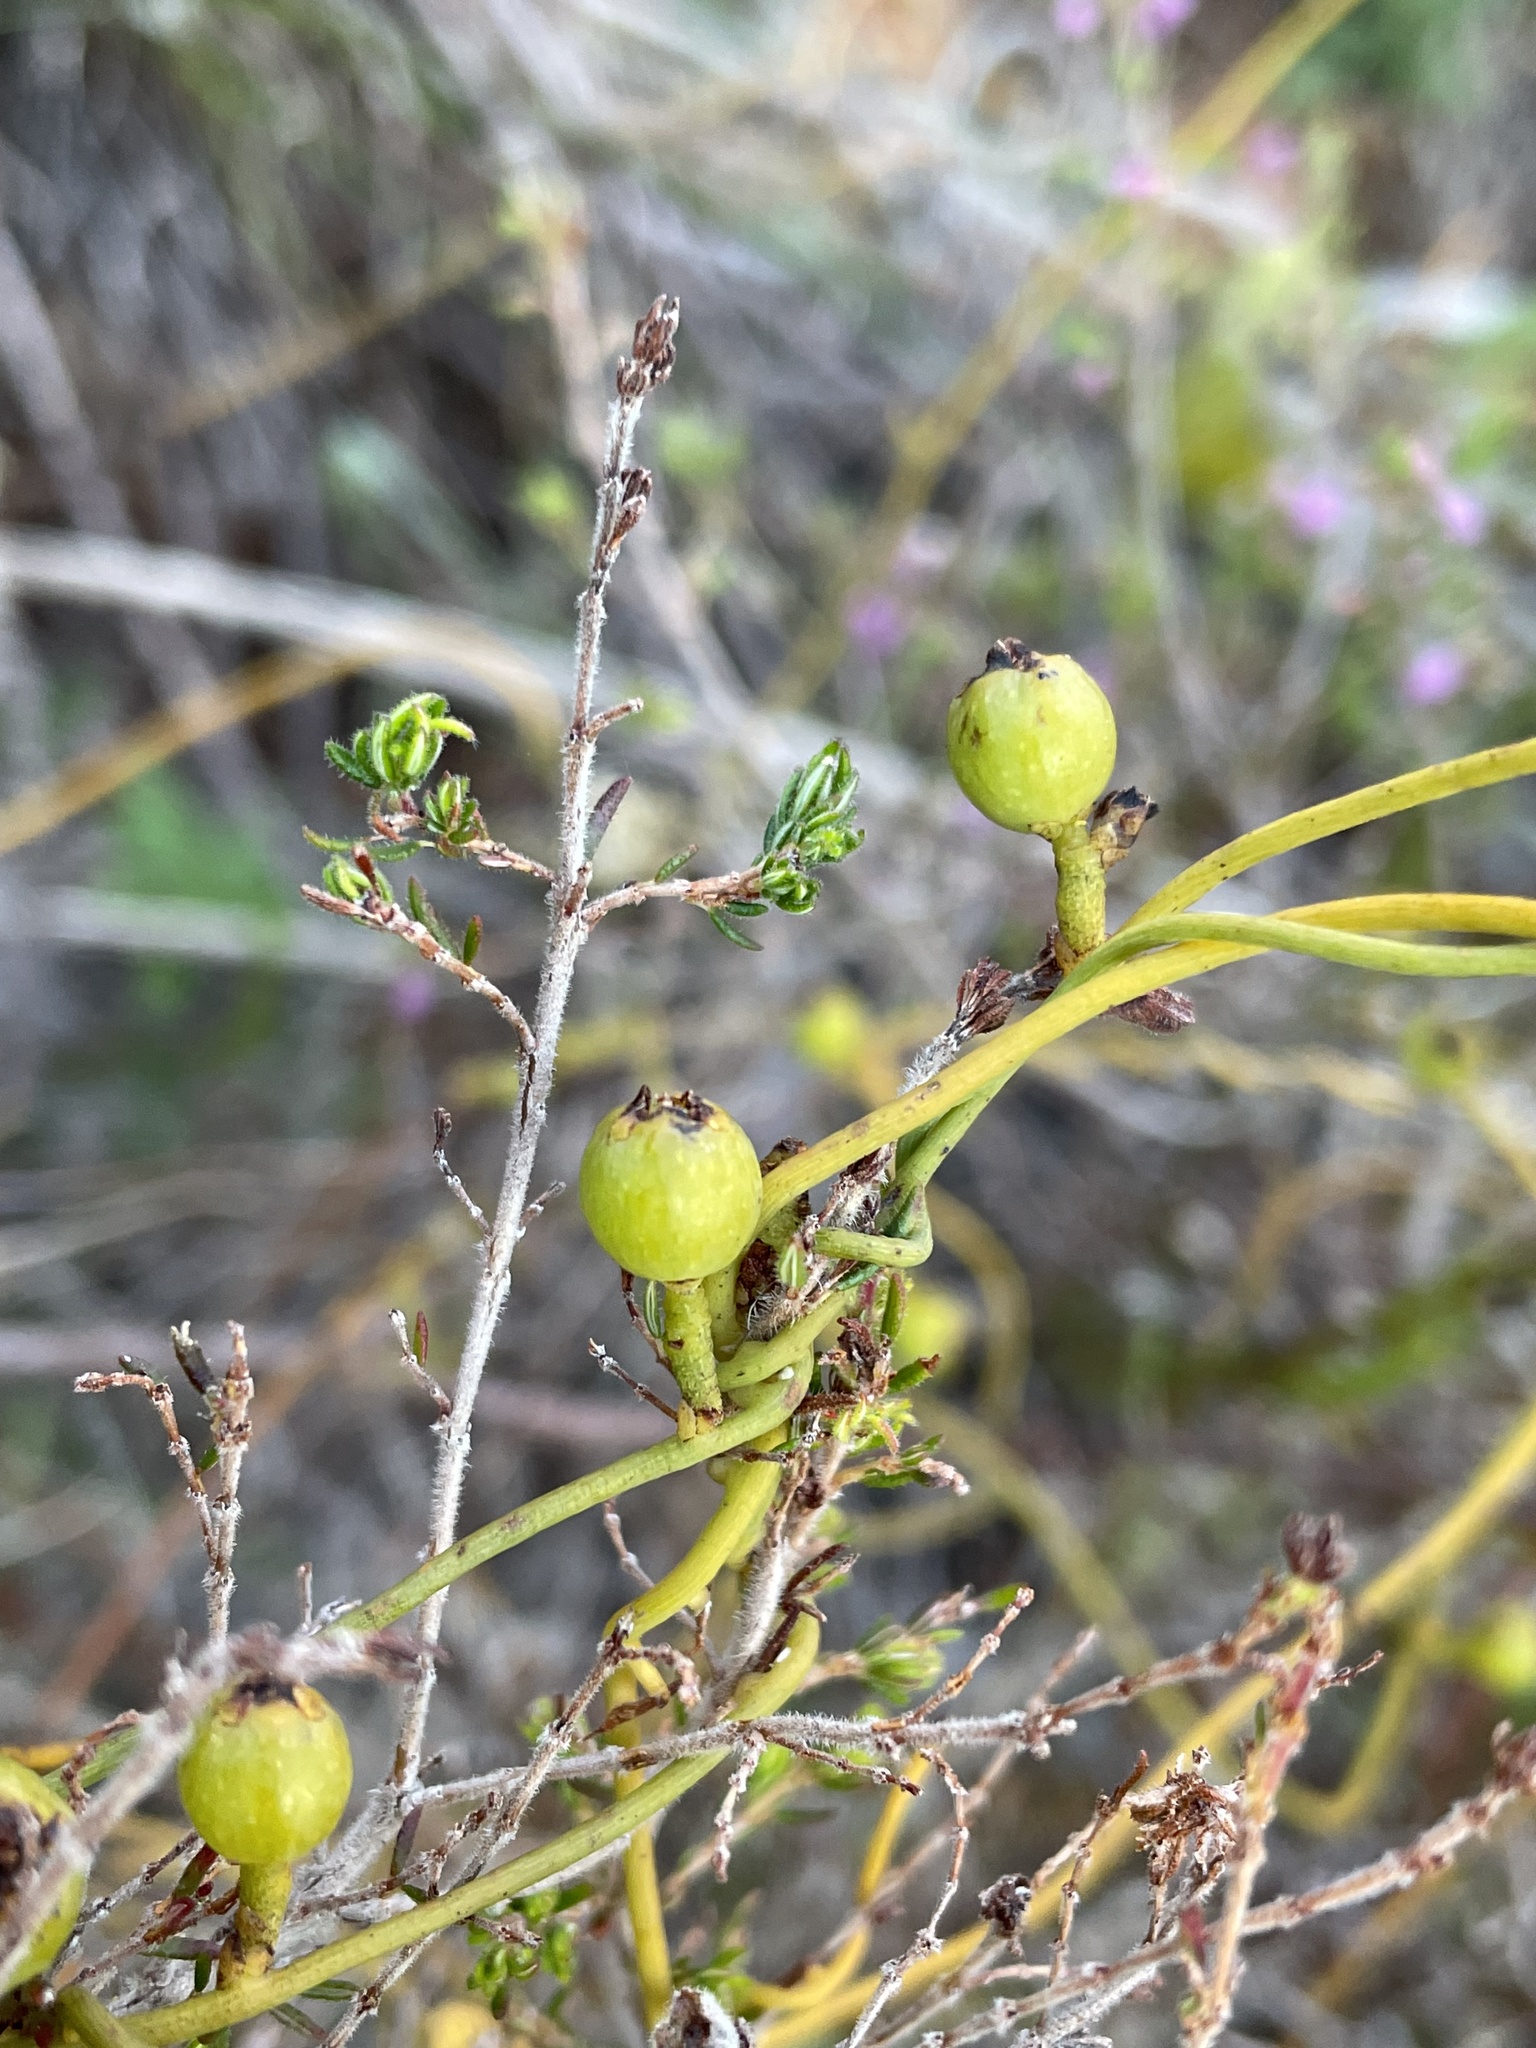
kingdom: Plantae
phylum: Tracheophyta
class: Magnoliopsida
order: Laurales
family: Lauraceae
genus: Cassytha
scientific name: Cassytha ciliolata
